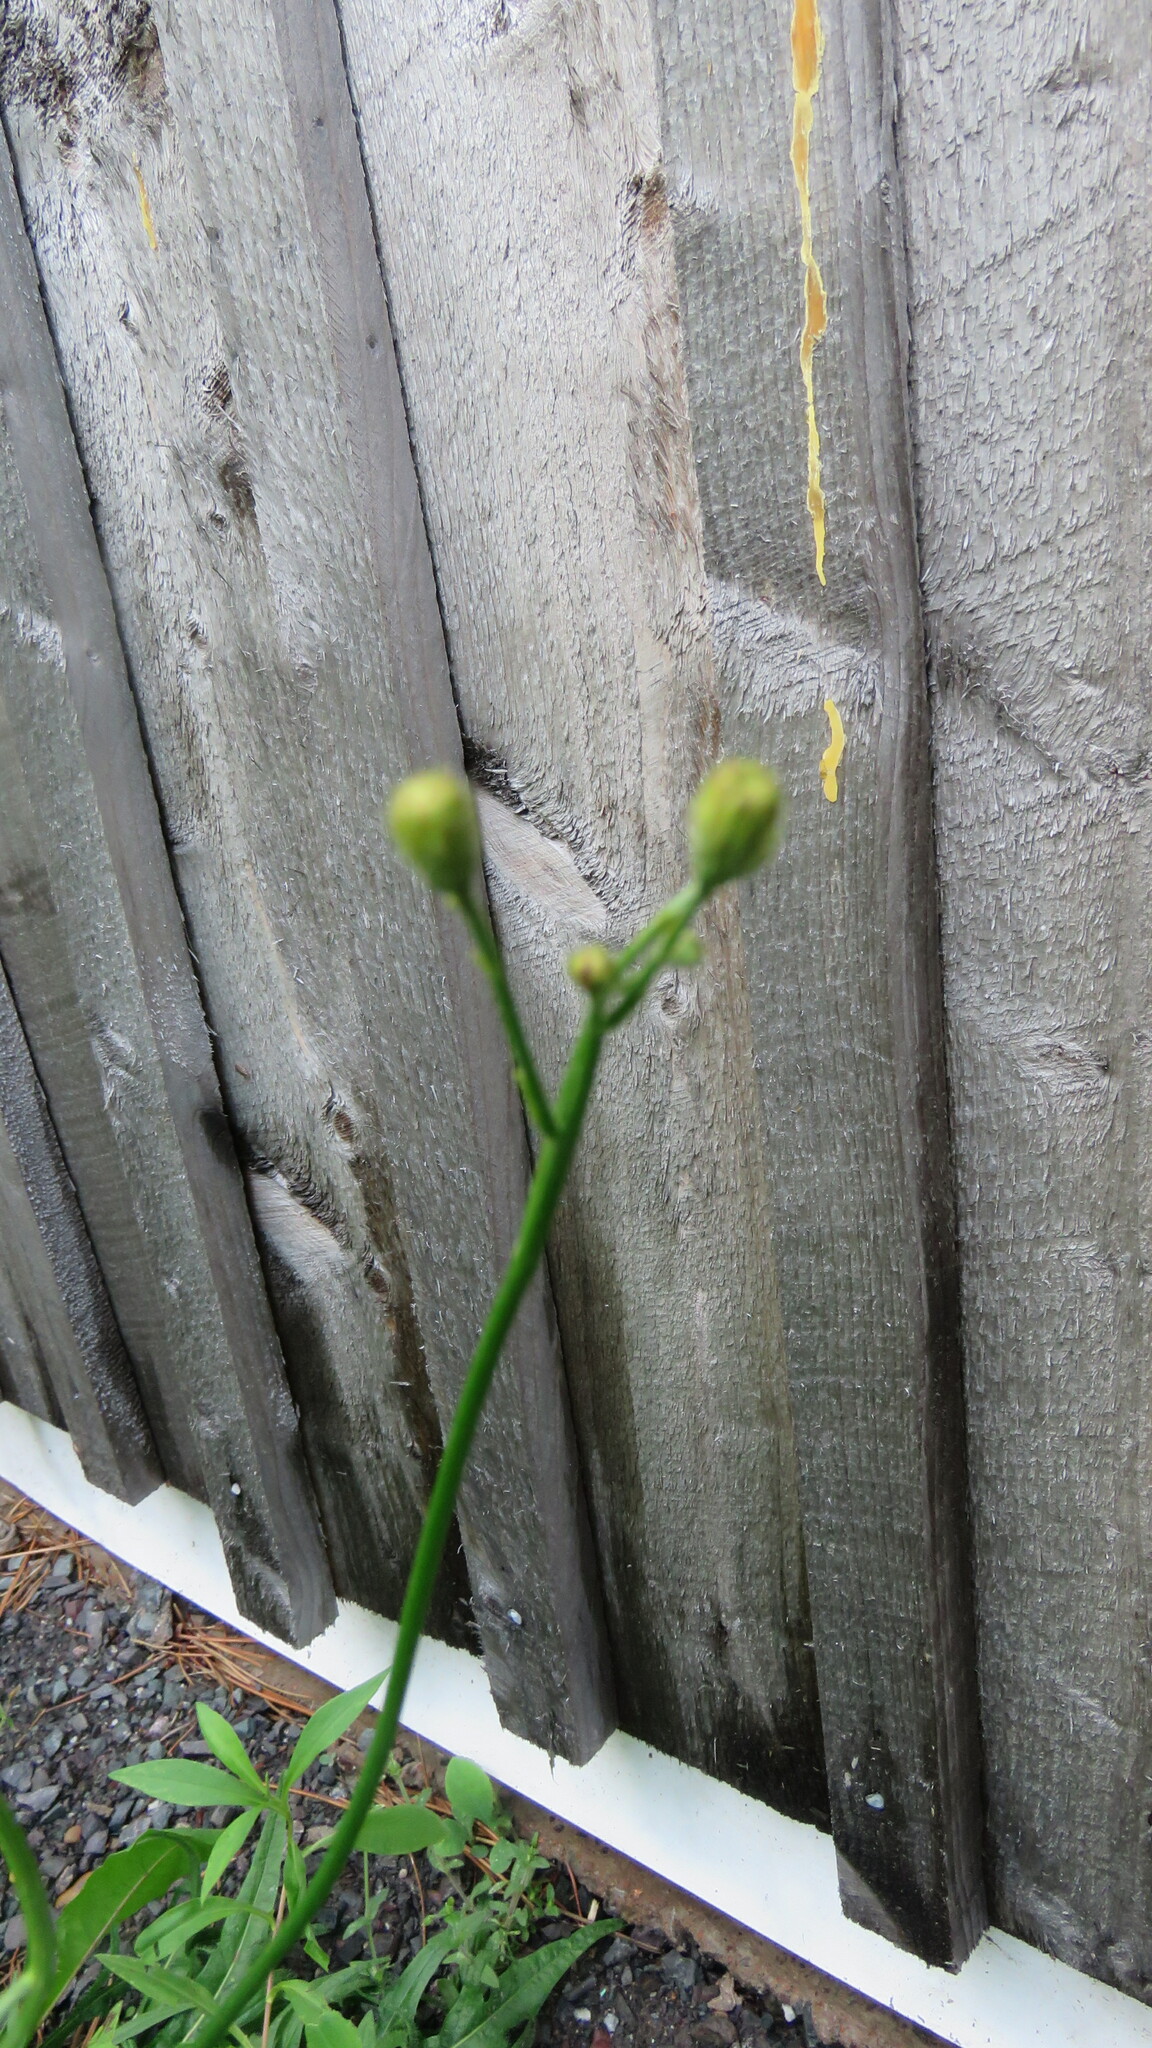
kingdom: Plantae
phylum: Tracheophyta
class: Magnoliopsida
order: Asterales
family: Asteraceae
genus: Scorzoneroides
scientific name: Scorzoneroides autumnalis
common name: Autumn hawkbit
